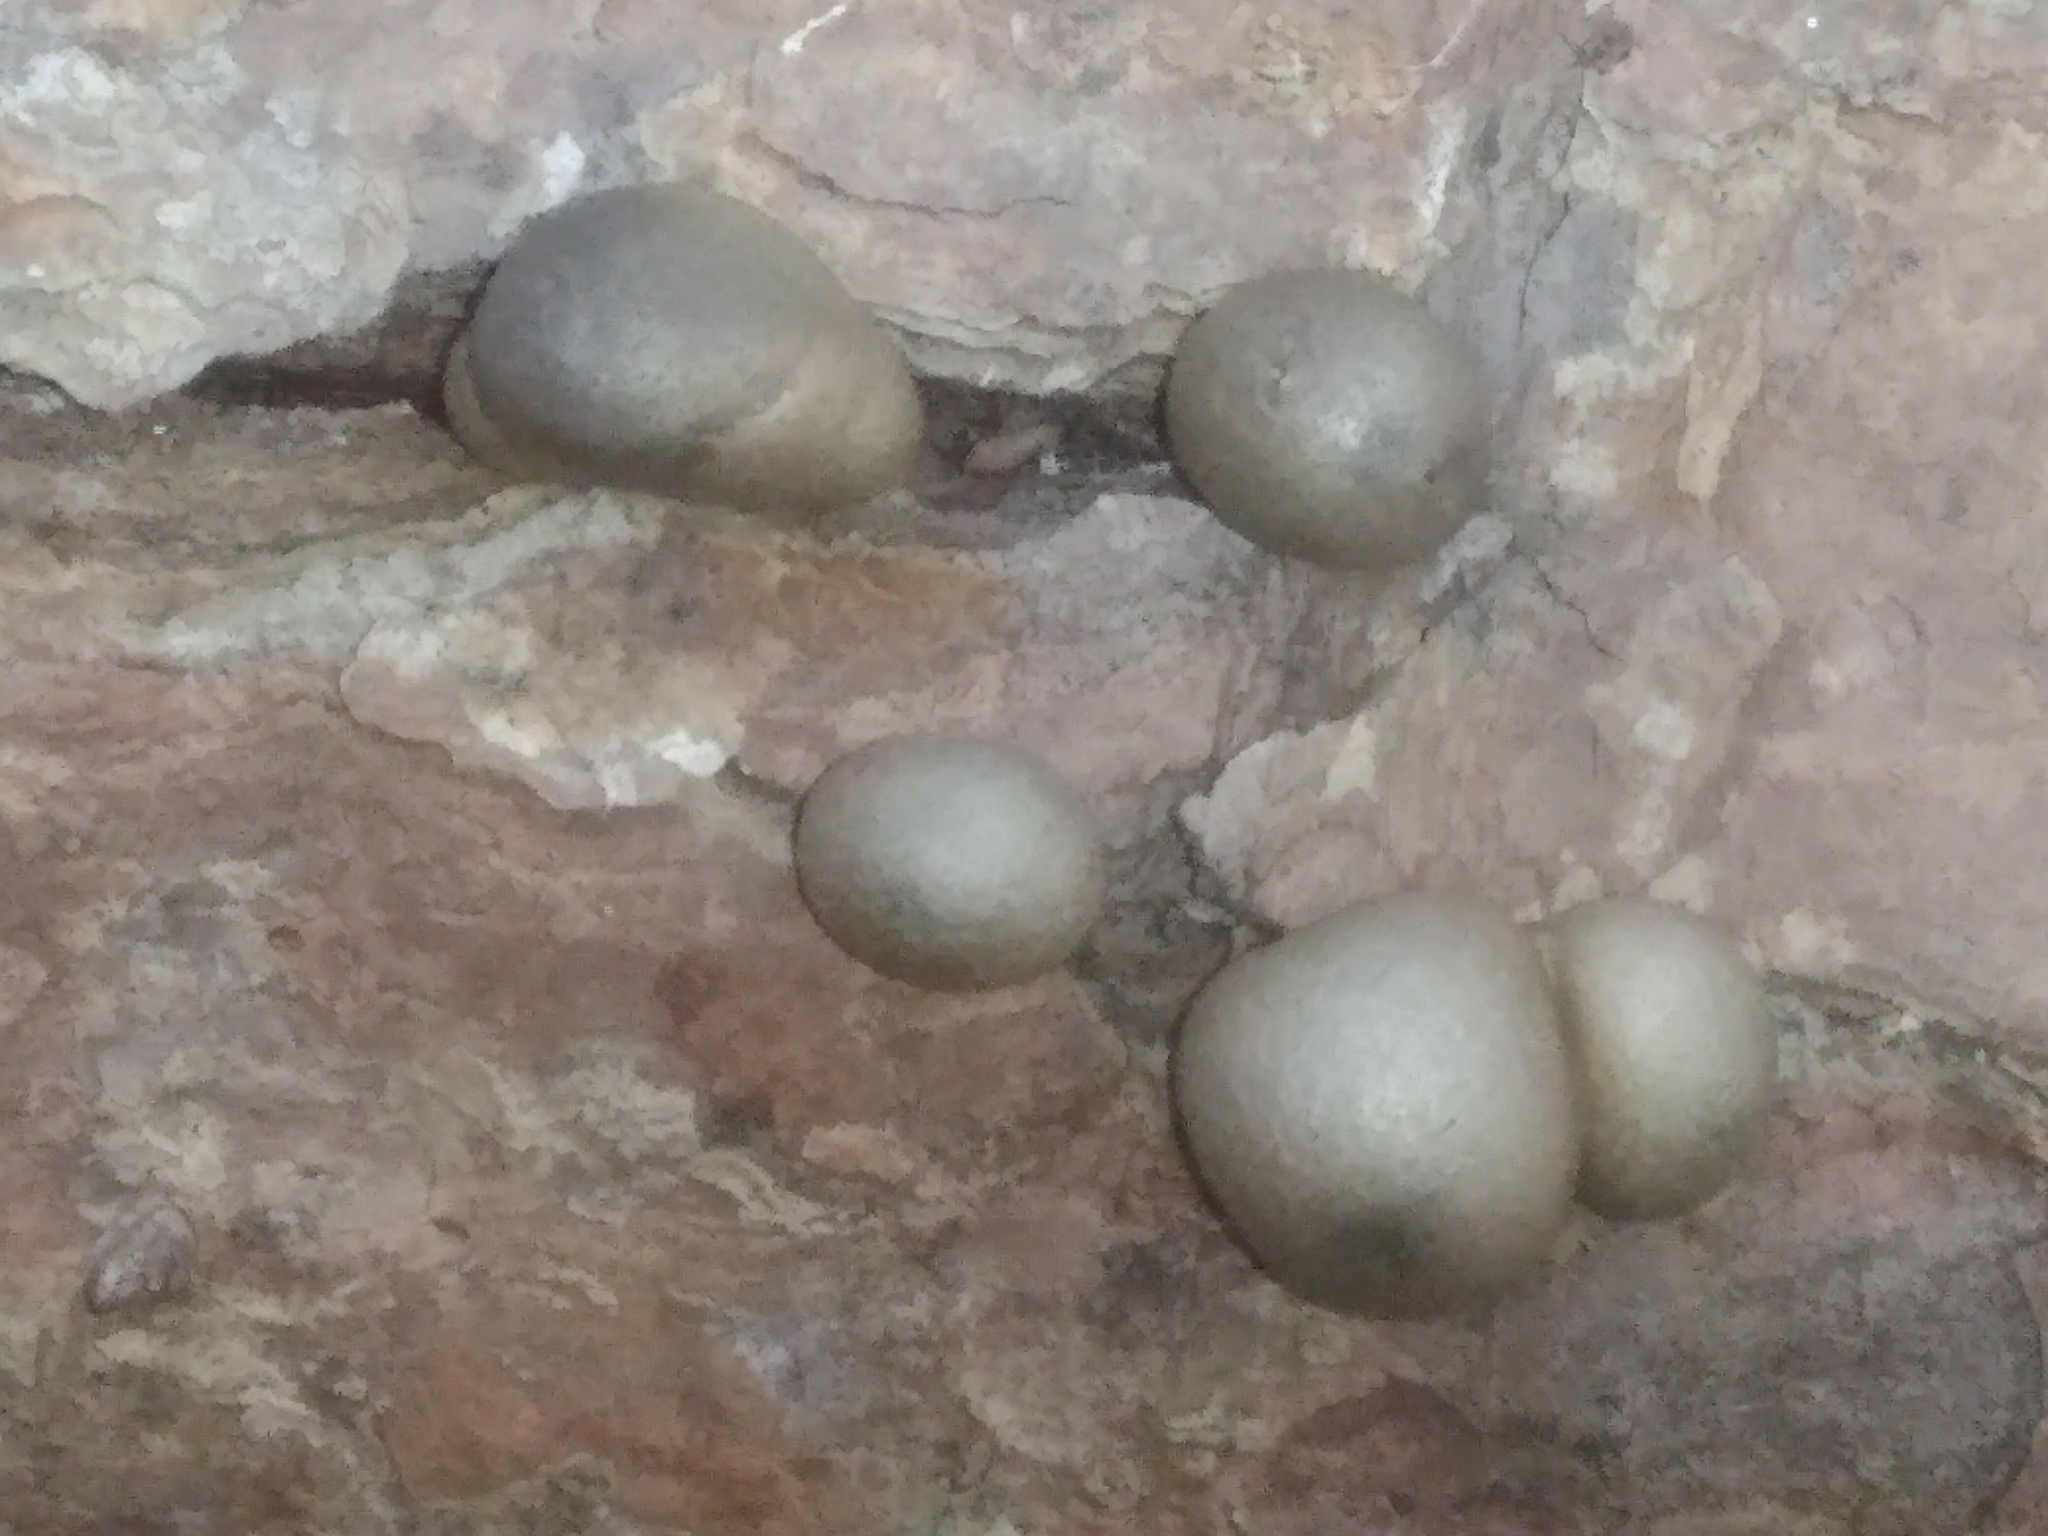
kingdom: Protozoa
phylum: Mycetozoa
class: Myxomycetes
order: Cribrariales
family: Tubiferaceae
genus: Lycogala
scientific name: Lycogala epidendrum
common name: Wolf's milk
